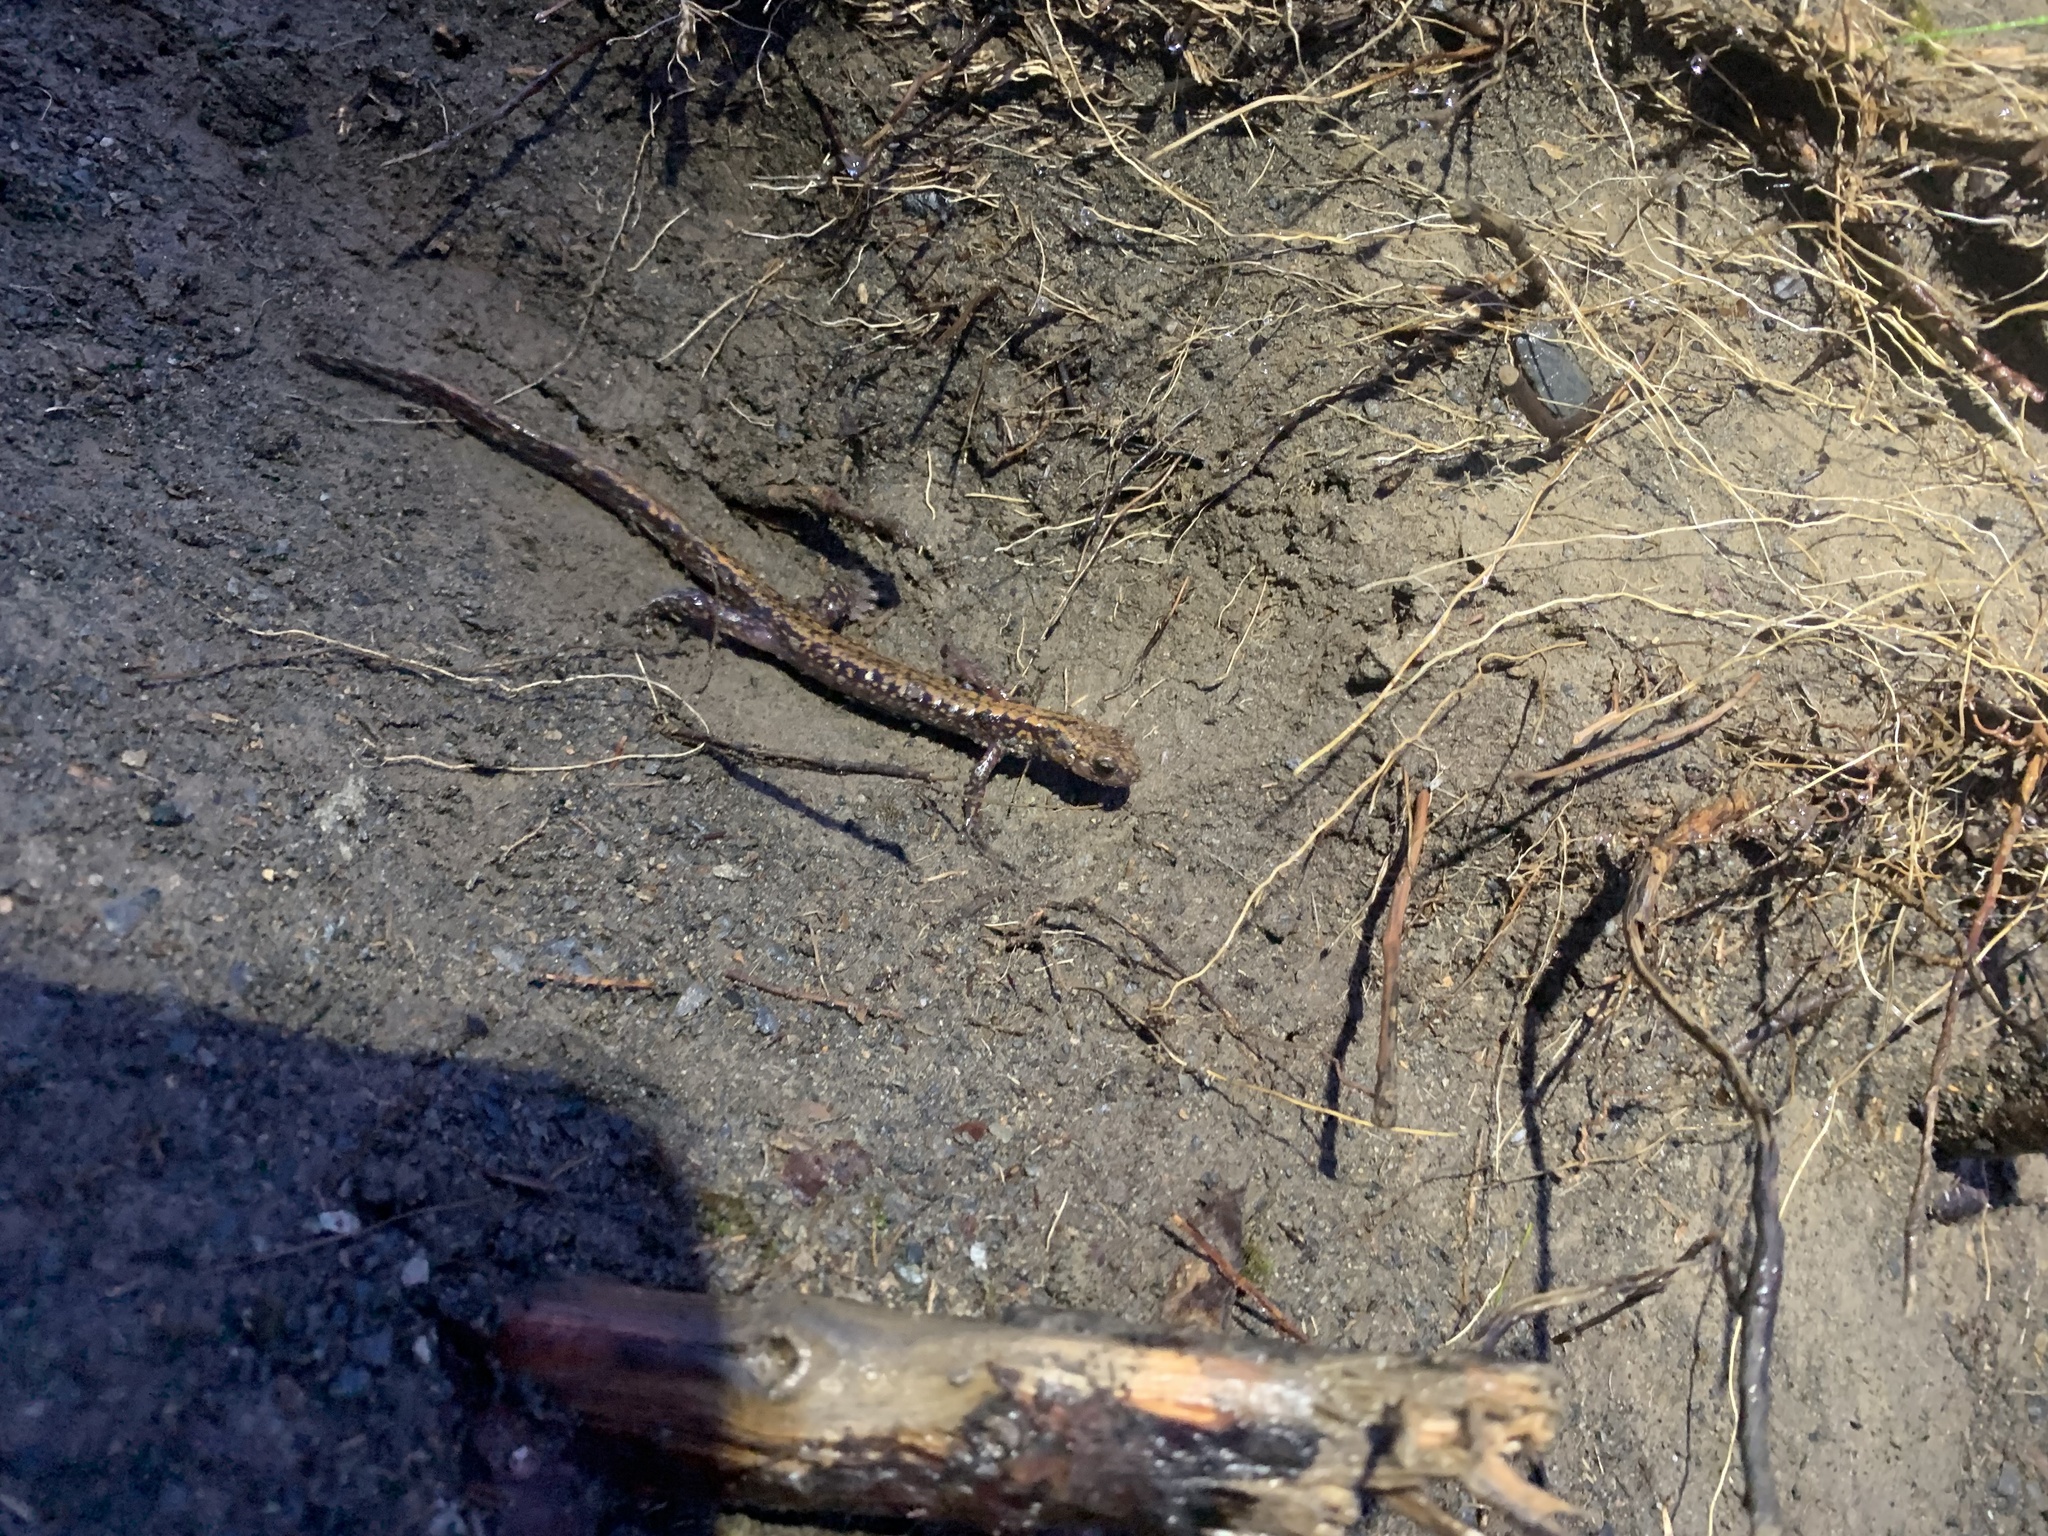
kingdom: Animalia
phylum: Chordata
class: Amphibia
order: Caudata
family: Hynobiidae
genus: Onychodactylus
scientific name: Onychodactylus japonicus
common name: Japanese clawed salamander
